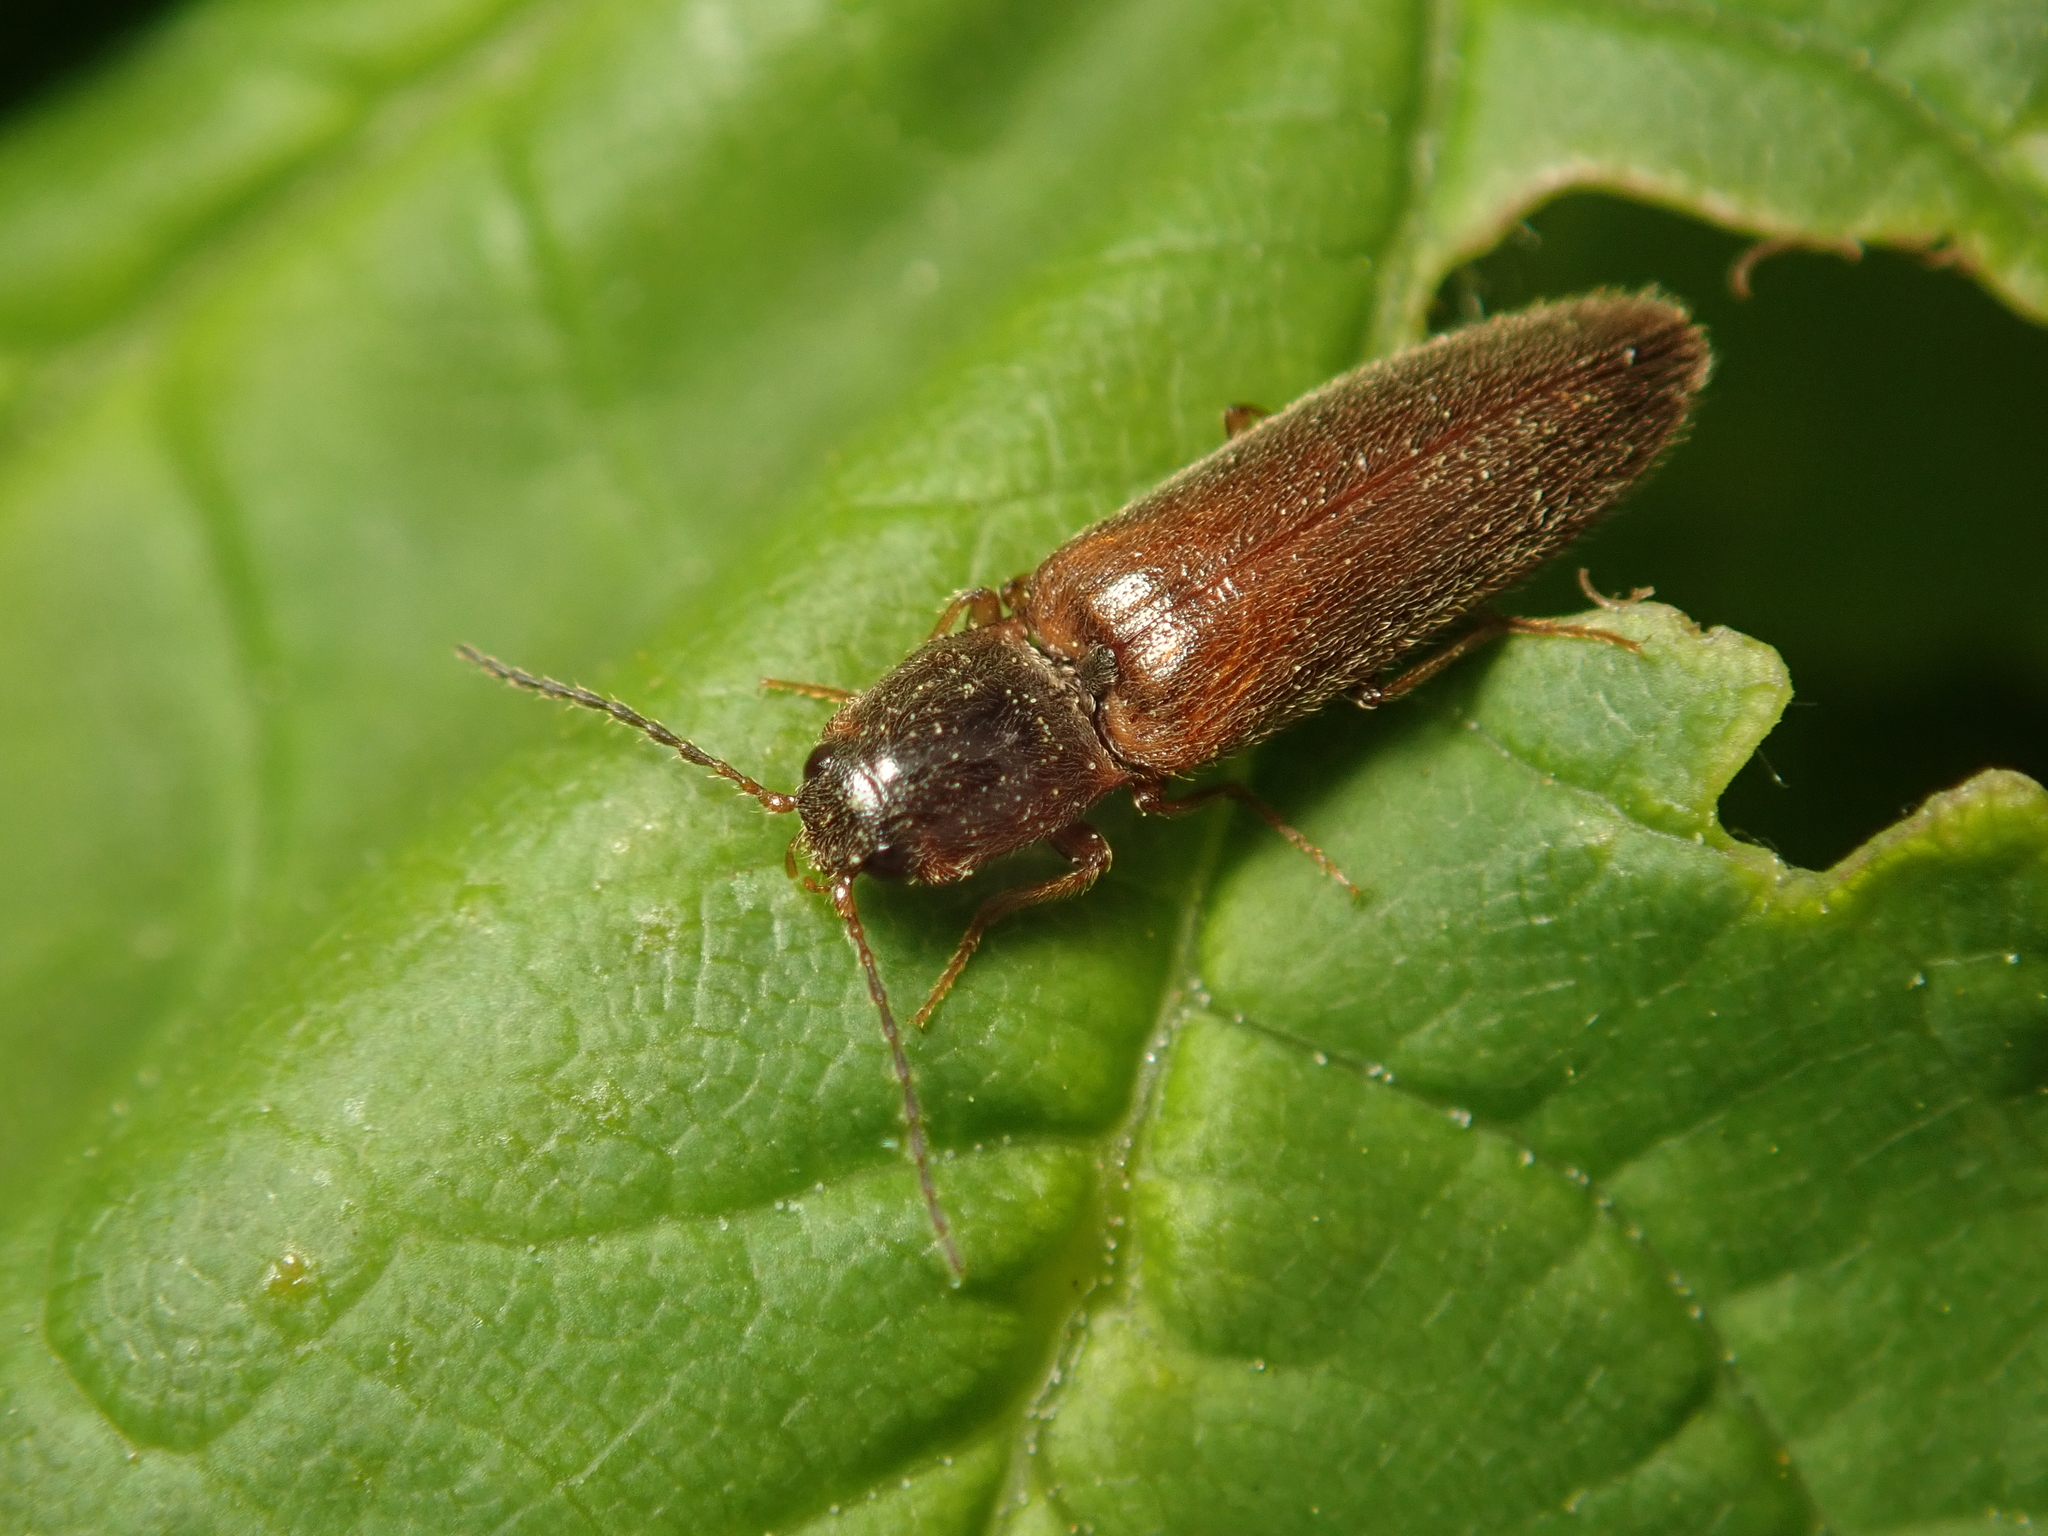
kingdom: Animalia
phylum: Arthropoda
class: Insecta
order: Coleoptera
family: Elateridae
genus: Athous
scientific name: Athous subfuscus
